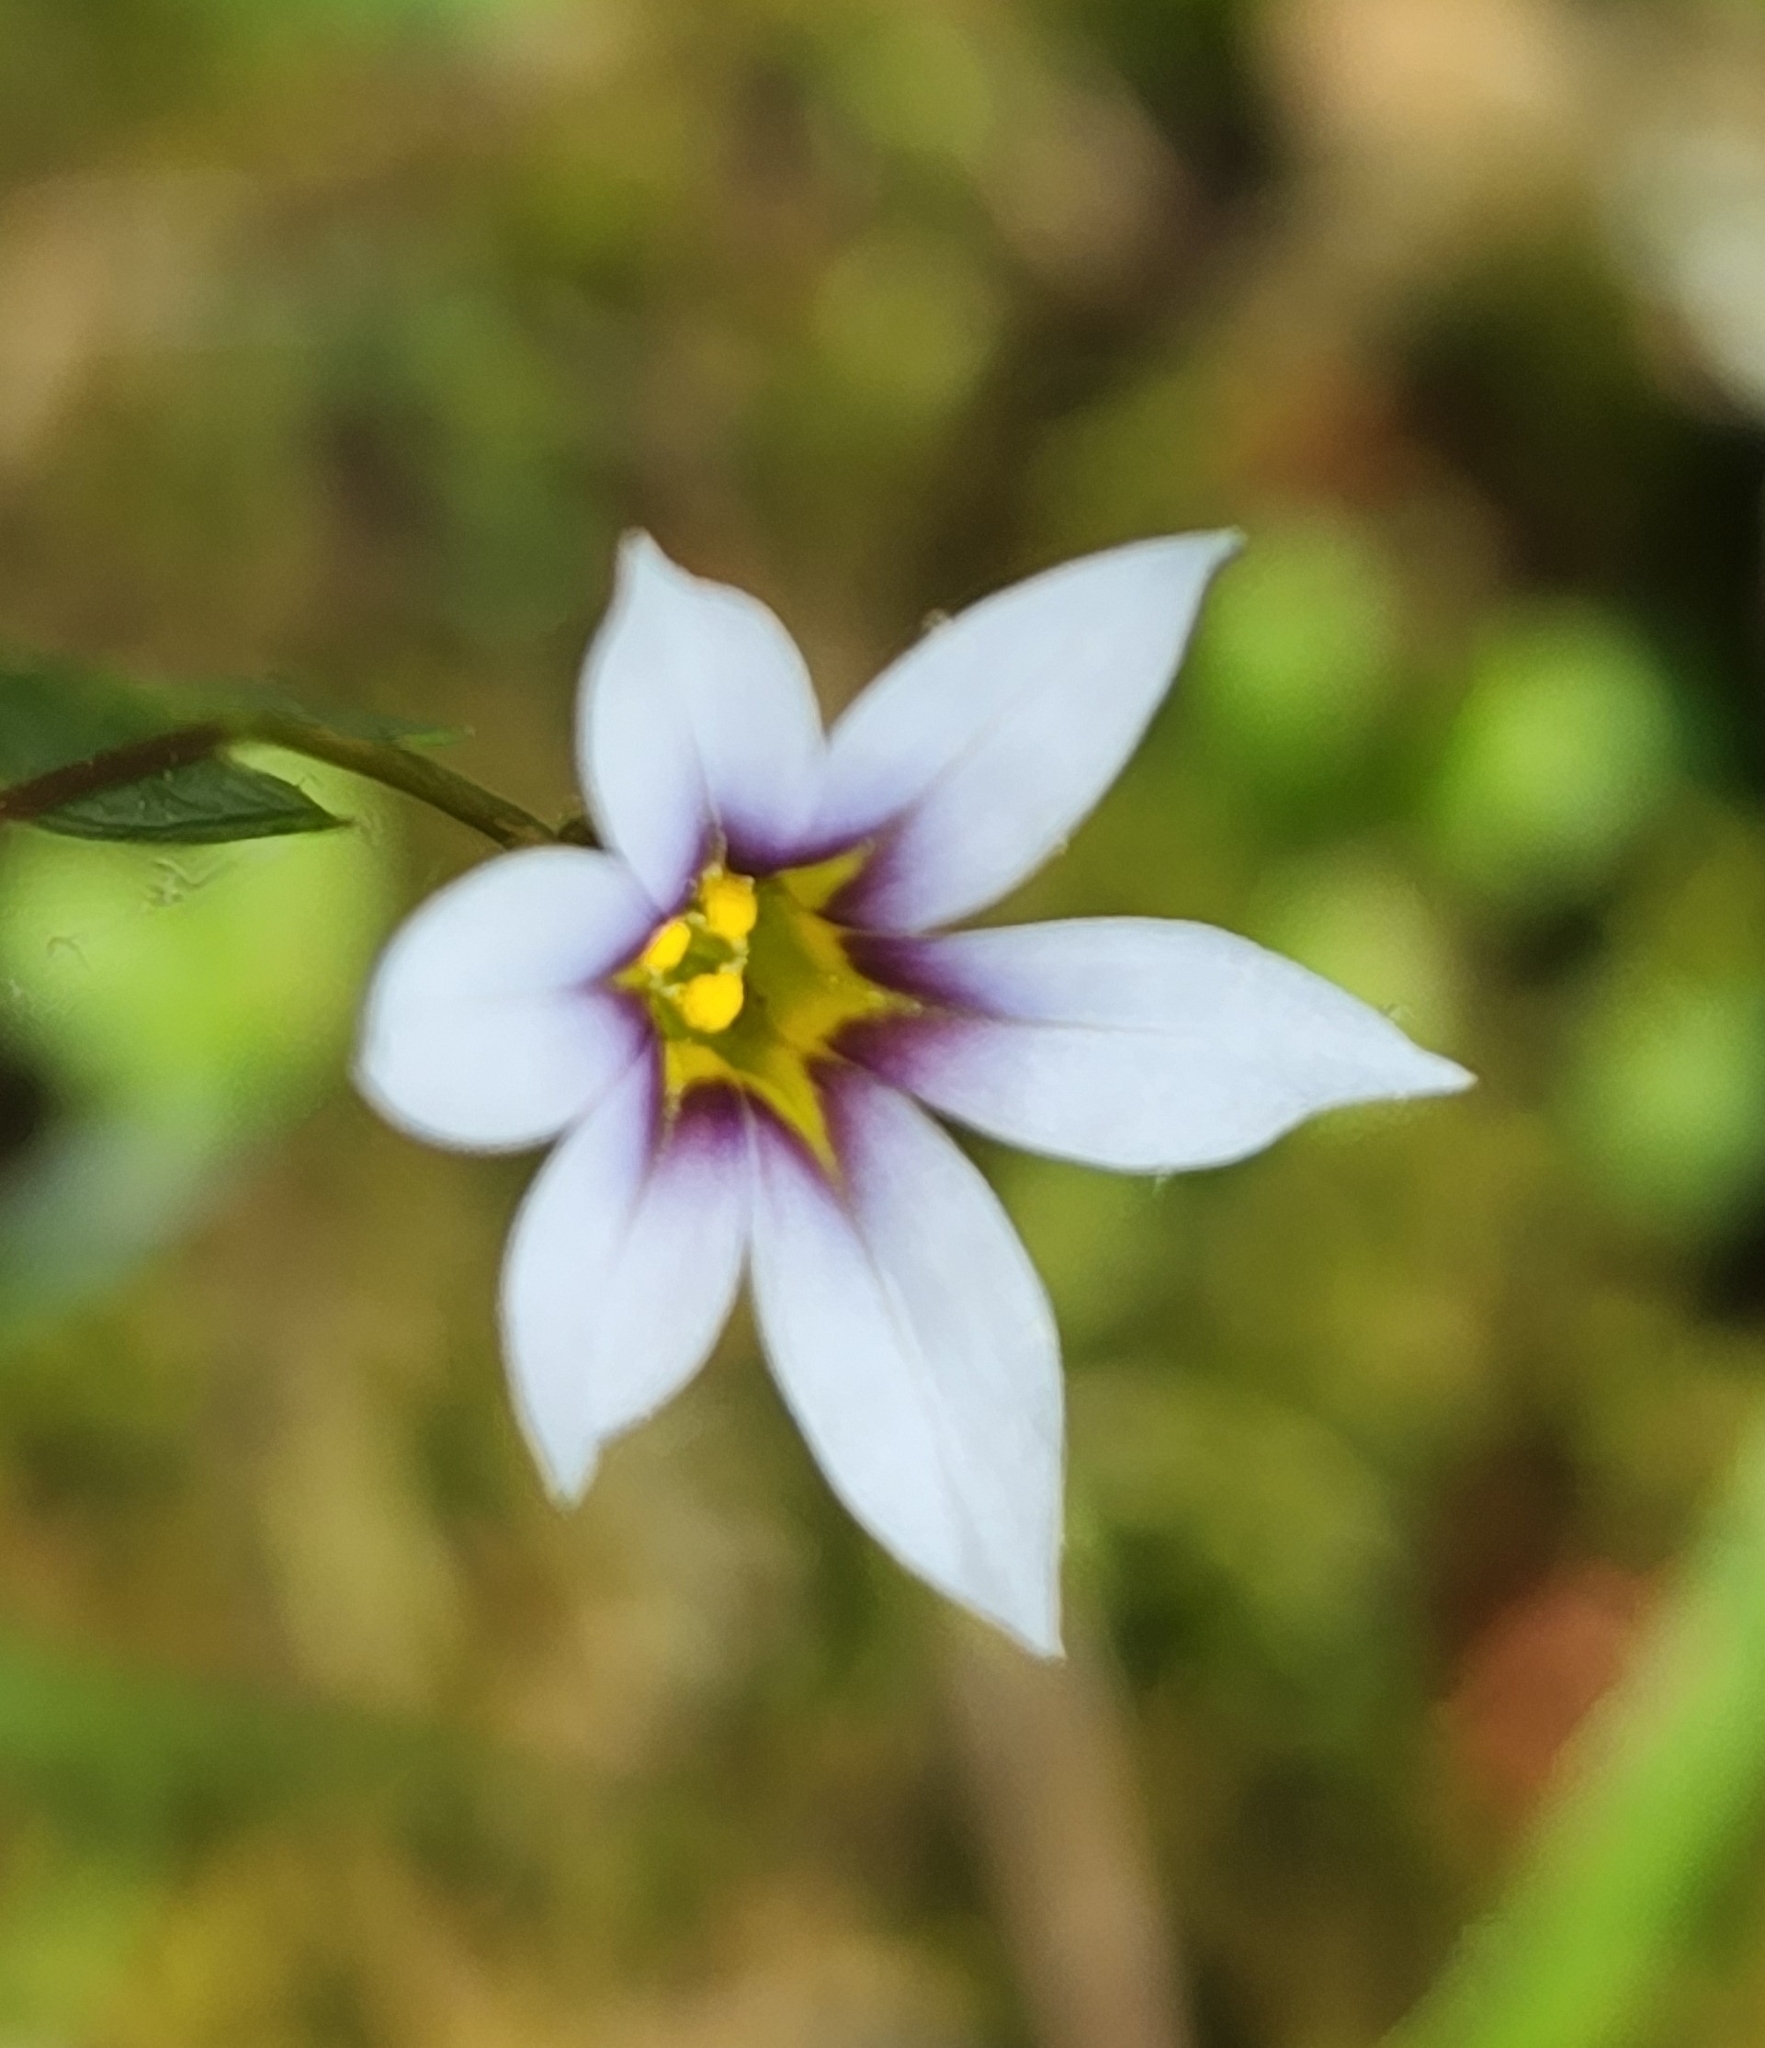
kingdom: Plantae
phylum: Tracheophyta
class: Liliopsida
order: Asparagales
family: Iridaceae
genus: Sisyrinchium
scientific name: Sisyrinchium micranthum
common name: Bermuda pigroot
